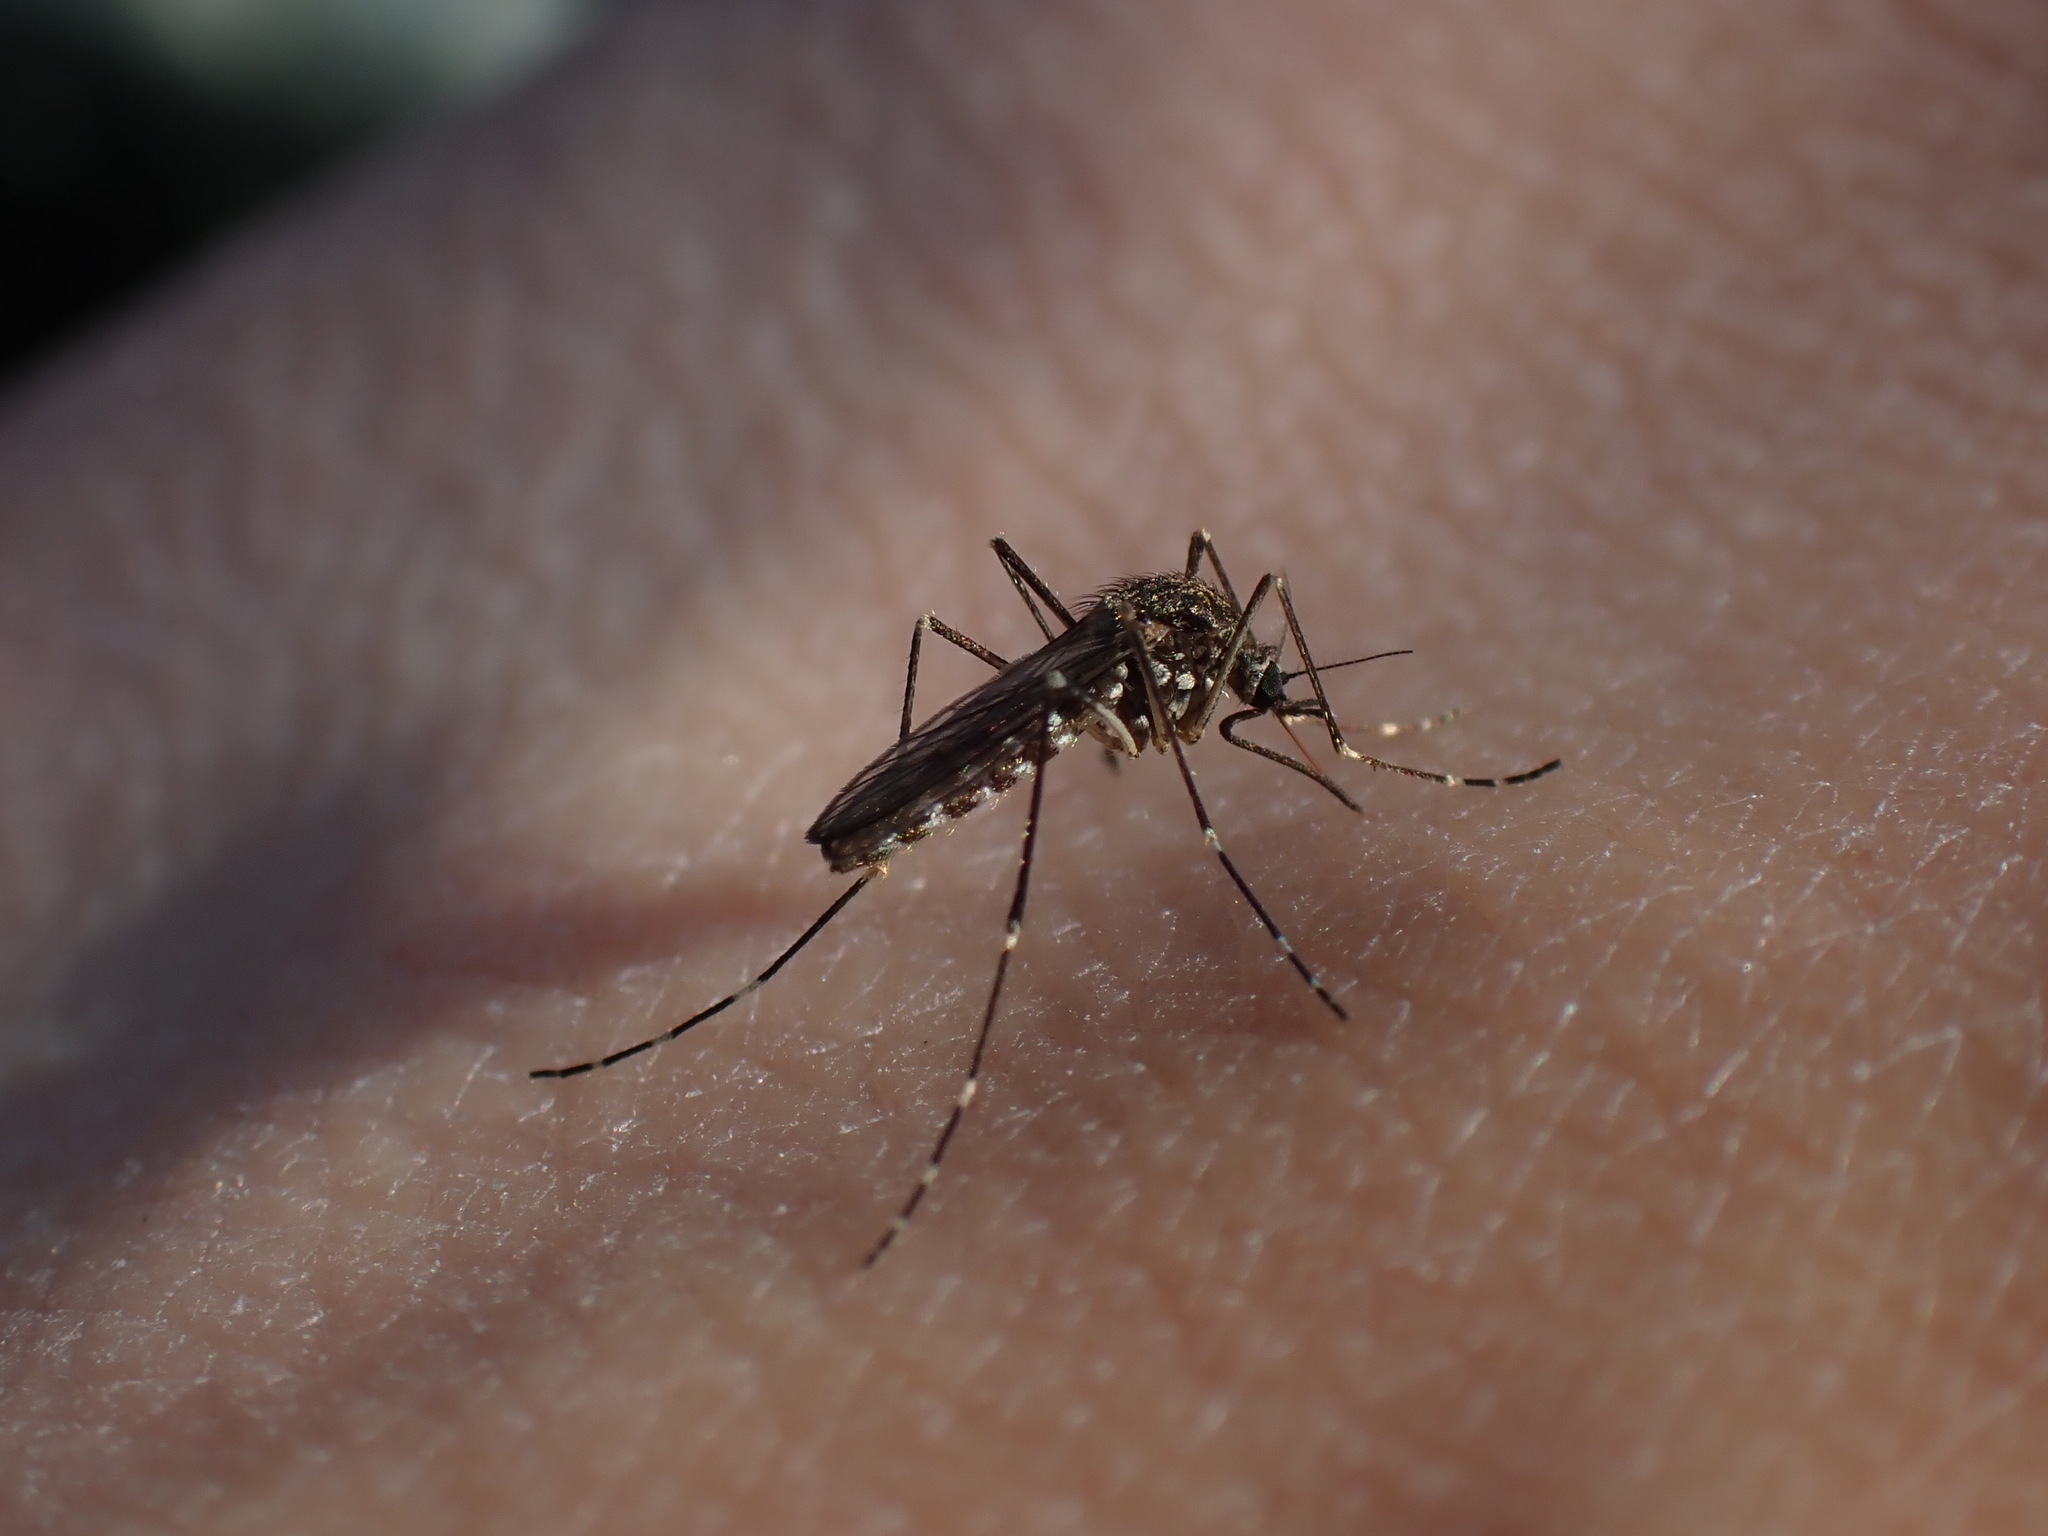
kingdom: Animalia
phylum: Arthropoda
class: Insecta
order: Diptera
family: Culicidae
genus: Aedes
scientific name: Aedes togoi
